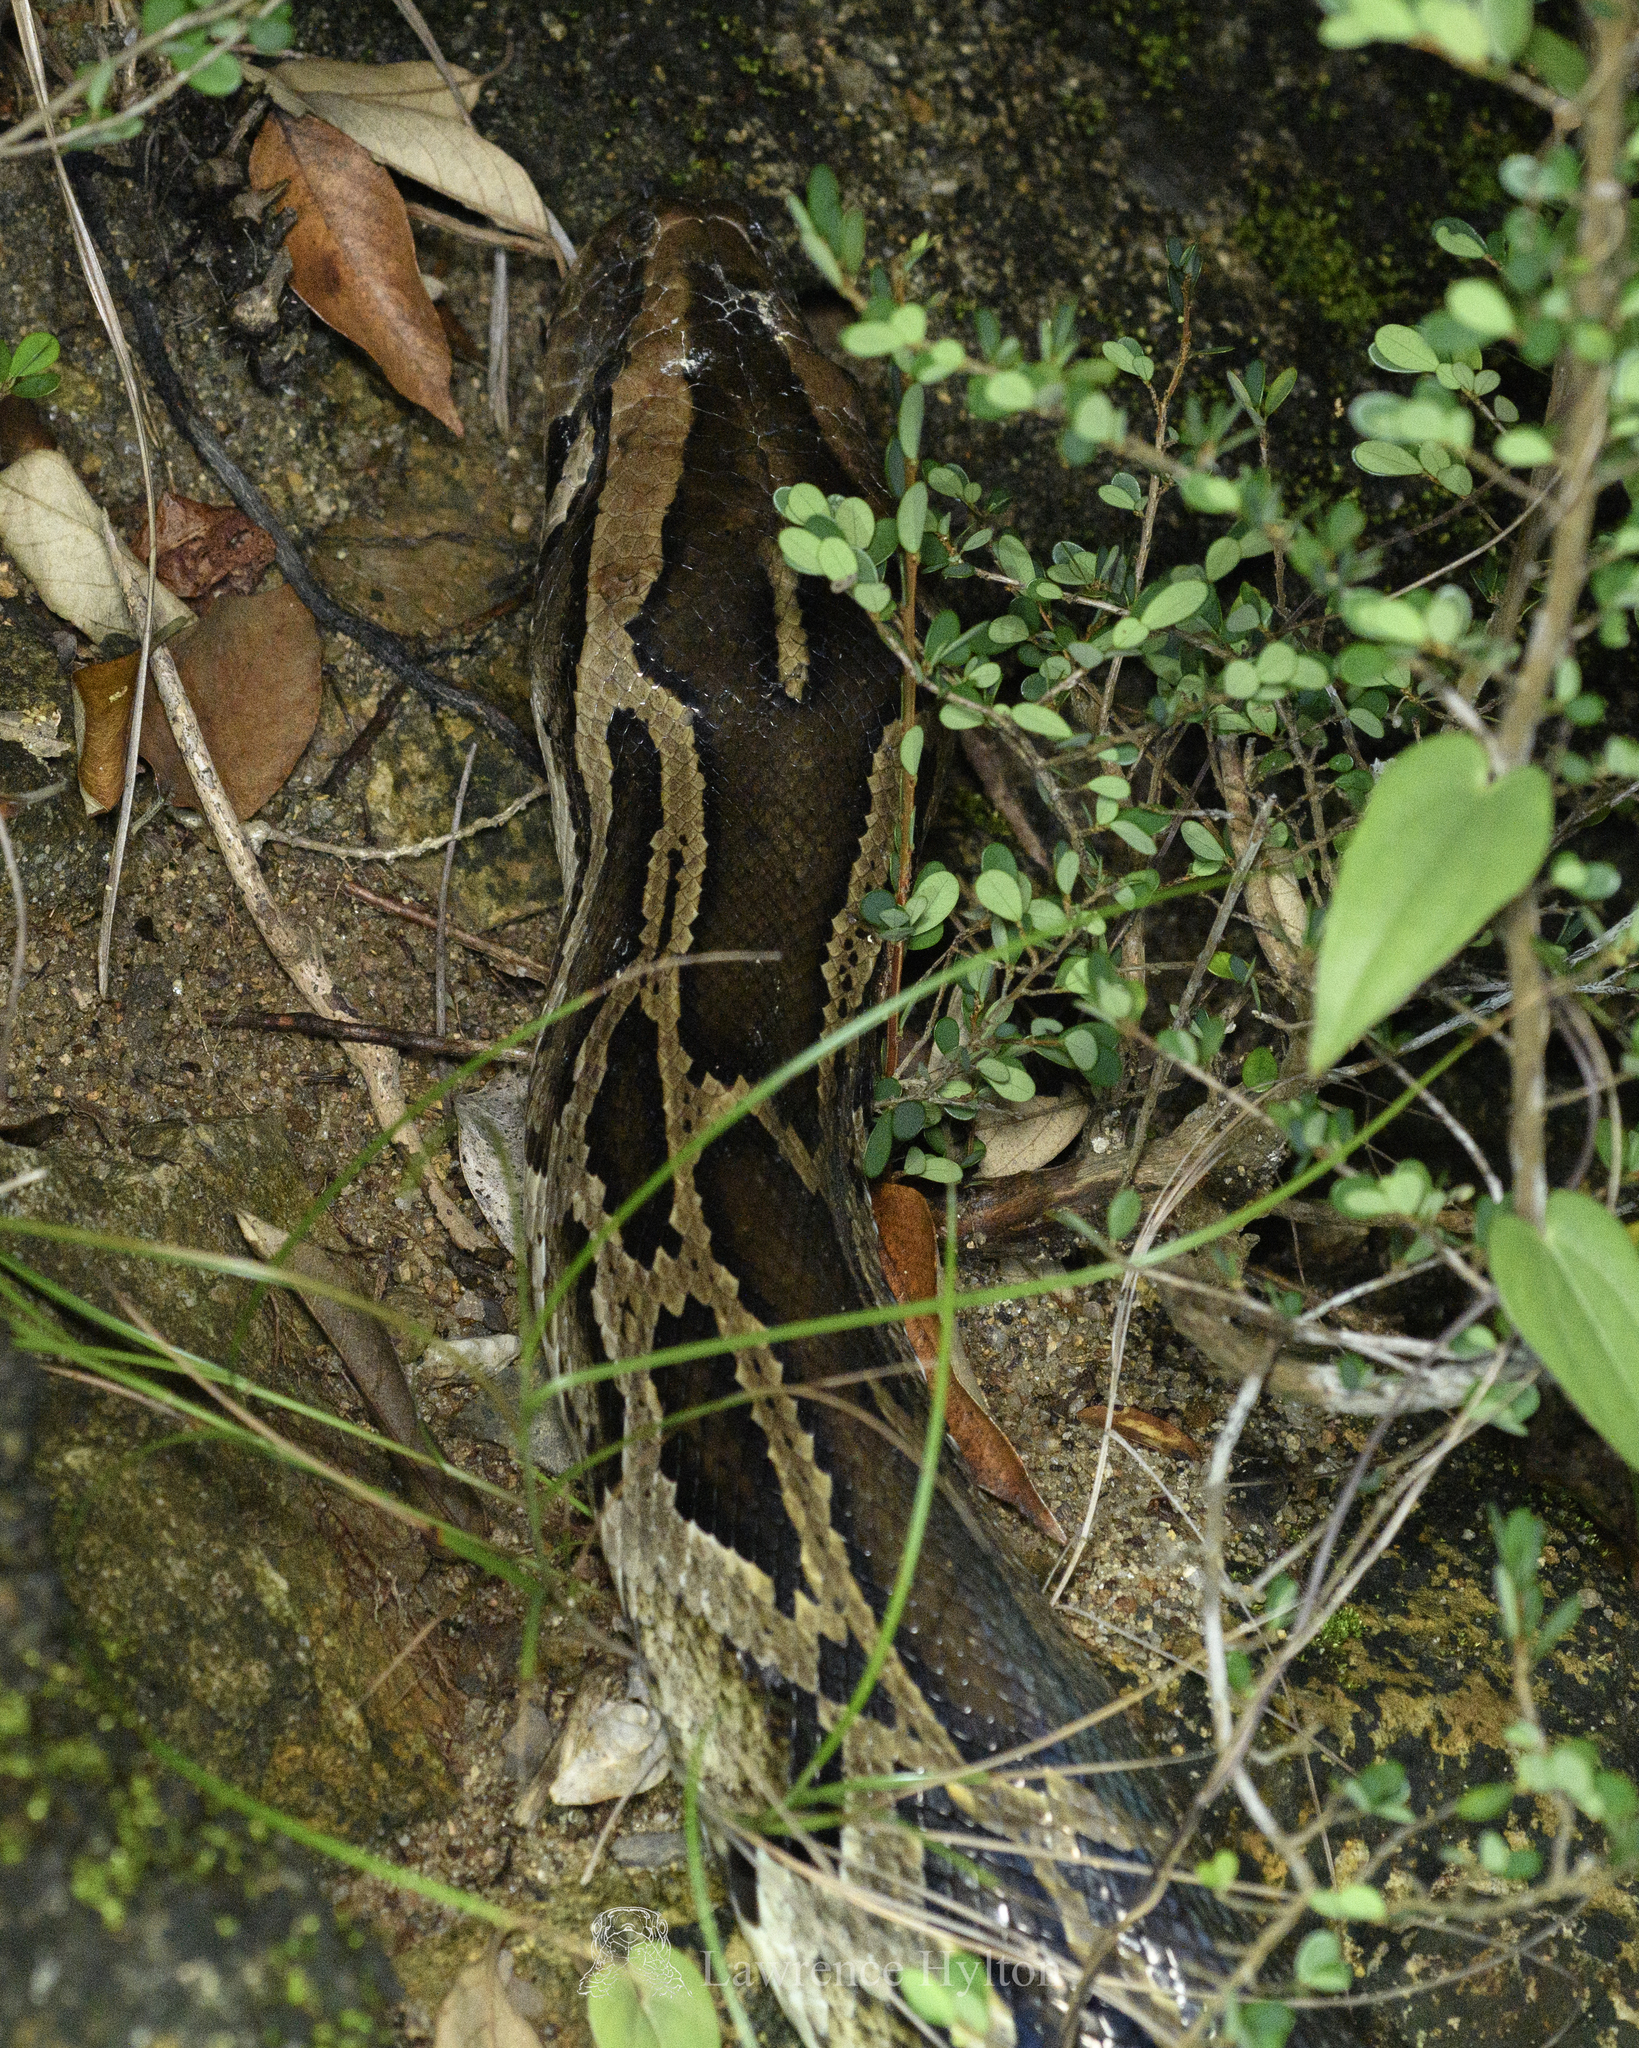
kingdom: Animalia
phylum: Chordata
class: Squamata
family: Pythonidae
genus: Python
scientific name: Python bivittatus
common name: Burmese python
